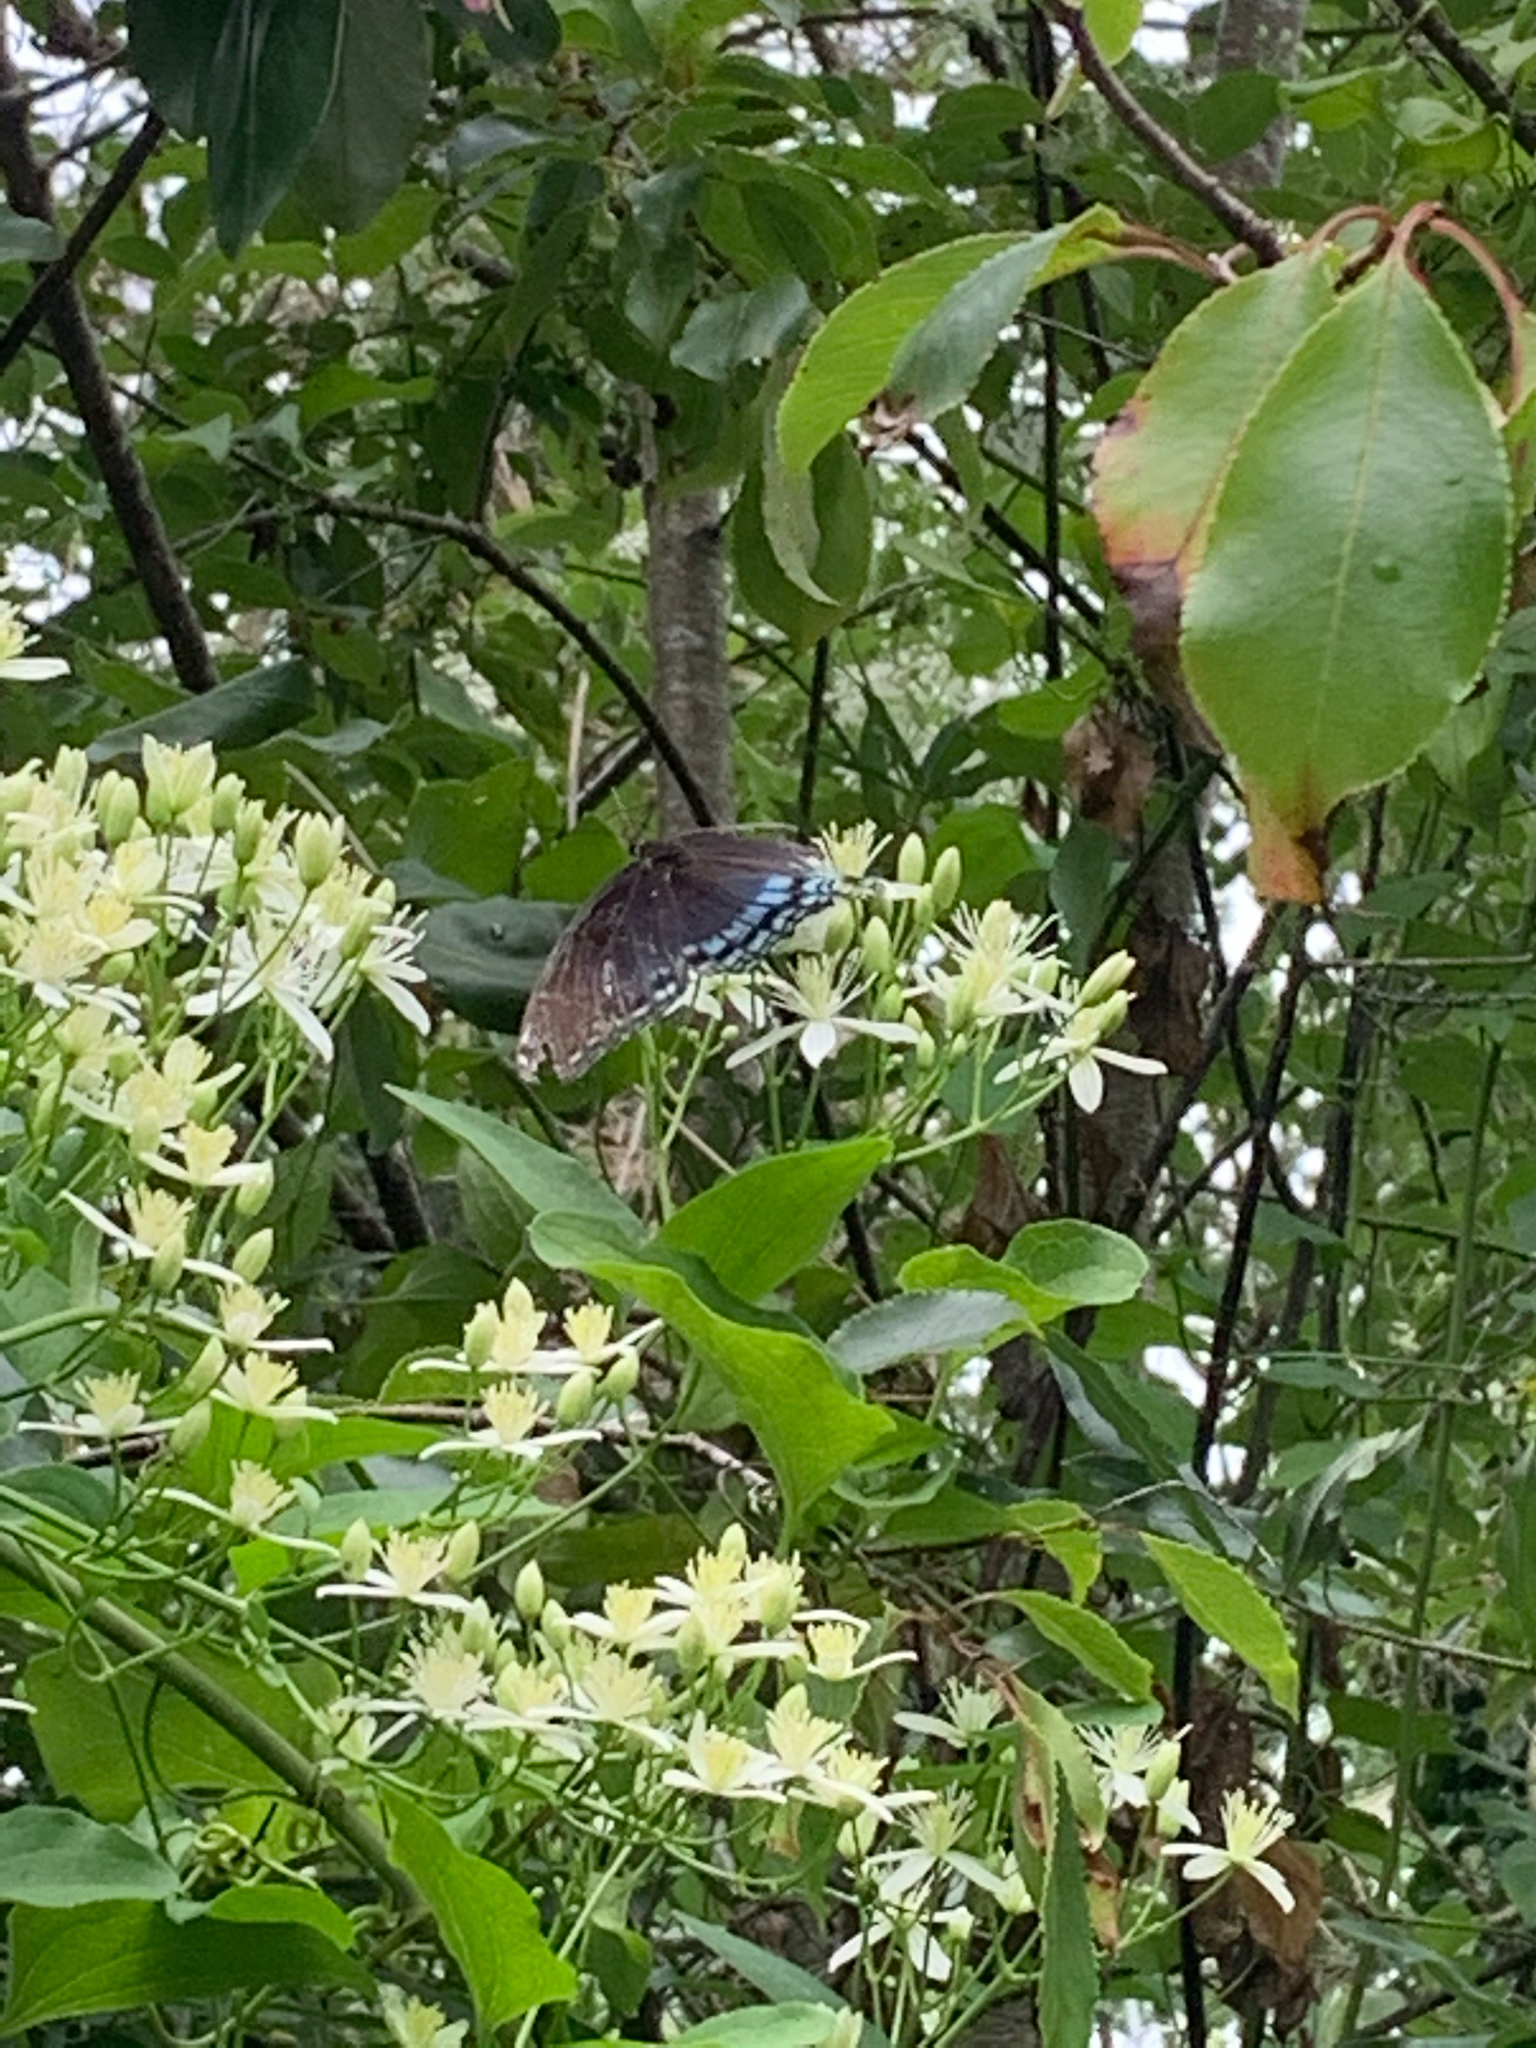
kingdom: Animalia
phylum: Arthropoda
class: Insecta
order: Lepidoptera
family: Nymphalidae
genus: Limenitis
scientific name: Limenitis astyanax
